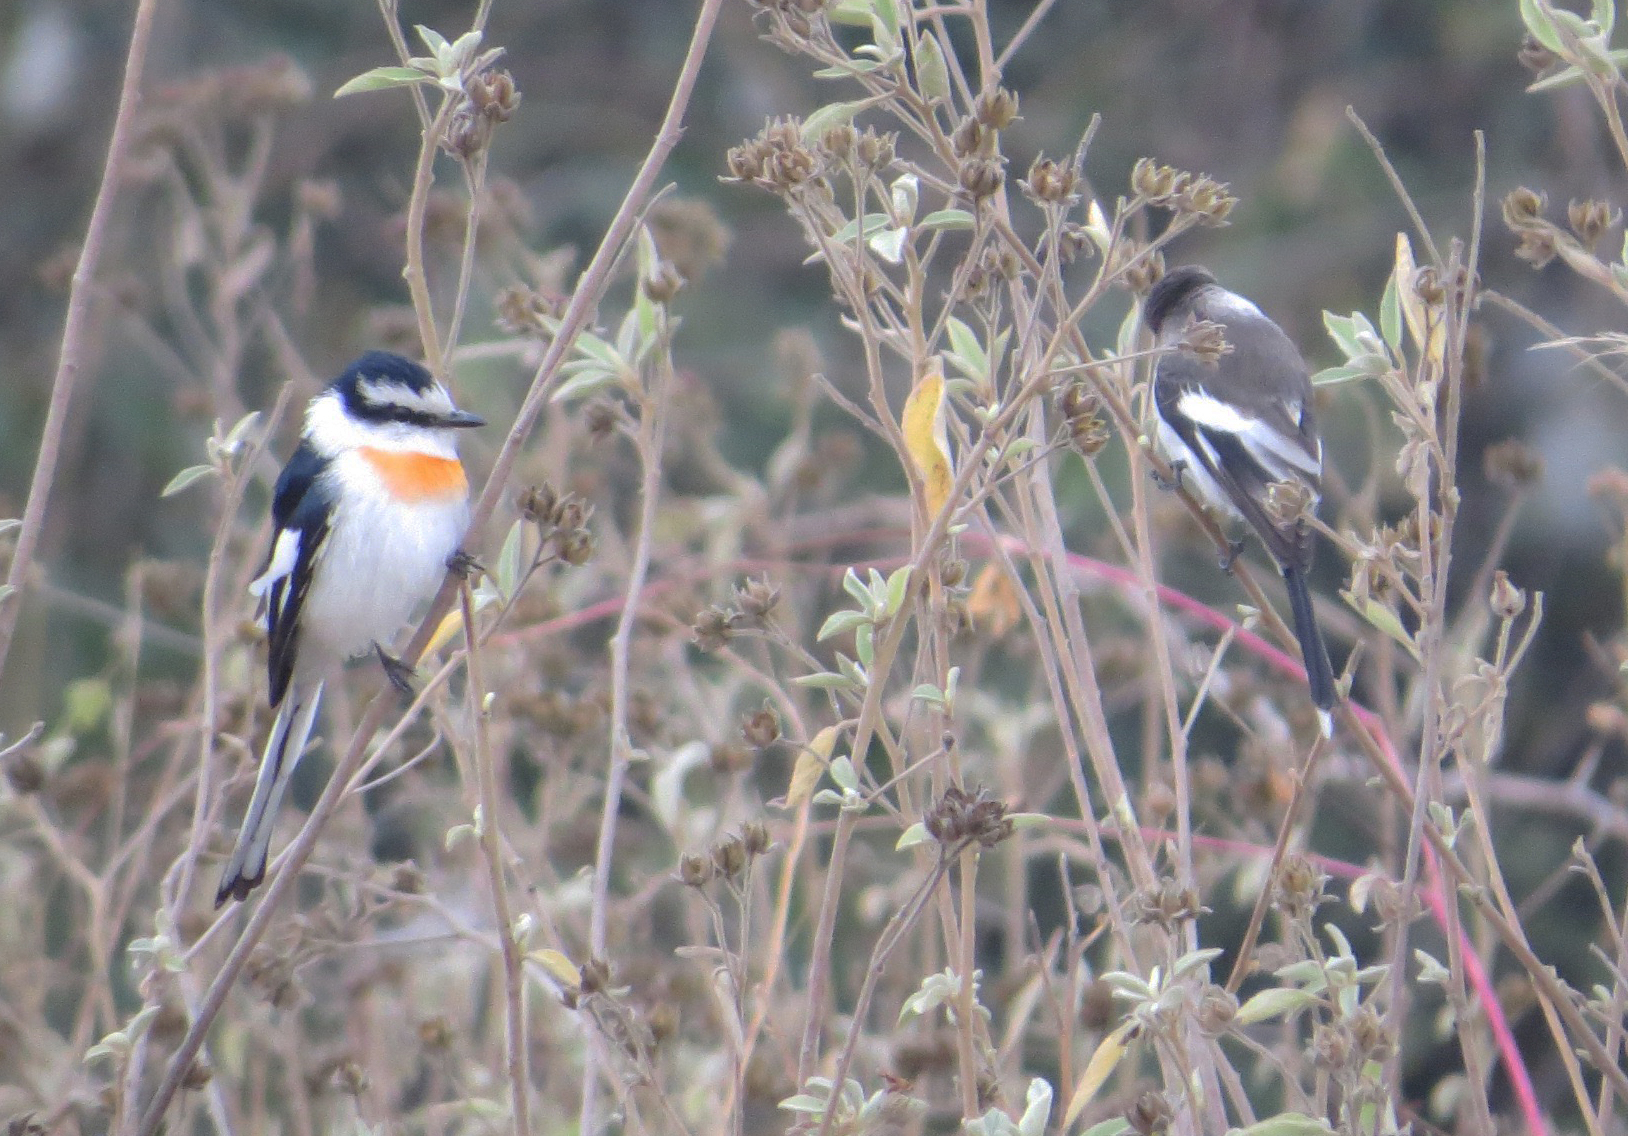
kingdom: Animalia
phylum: Chordata
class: Aves
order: Passeriformes
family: Campephagidae
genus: Pericrocotus
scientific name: Pericrocotus albifrons
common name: Jerdon's minivet
